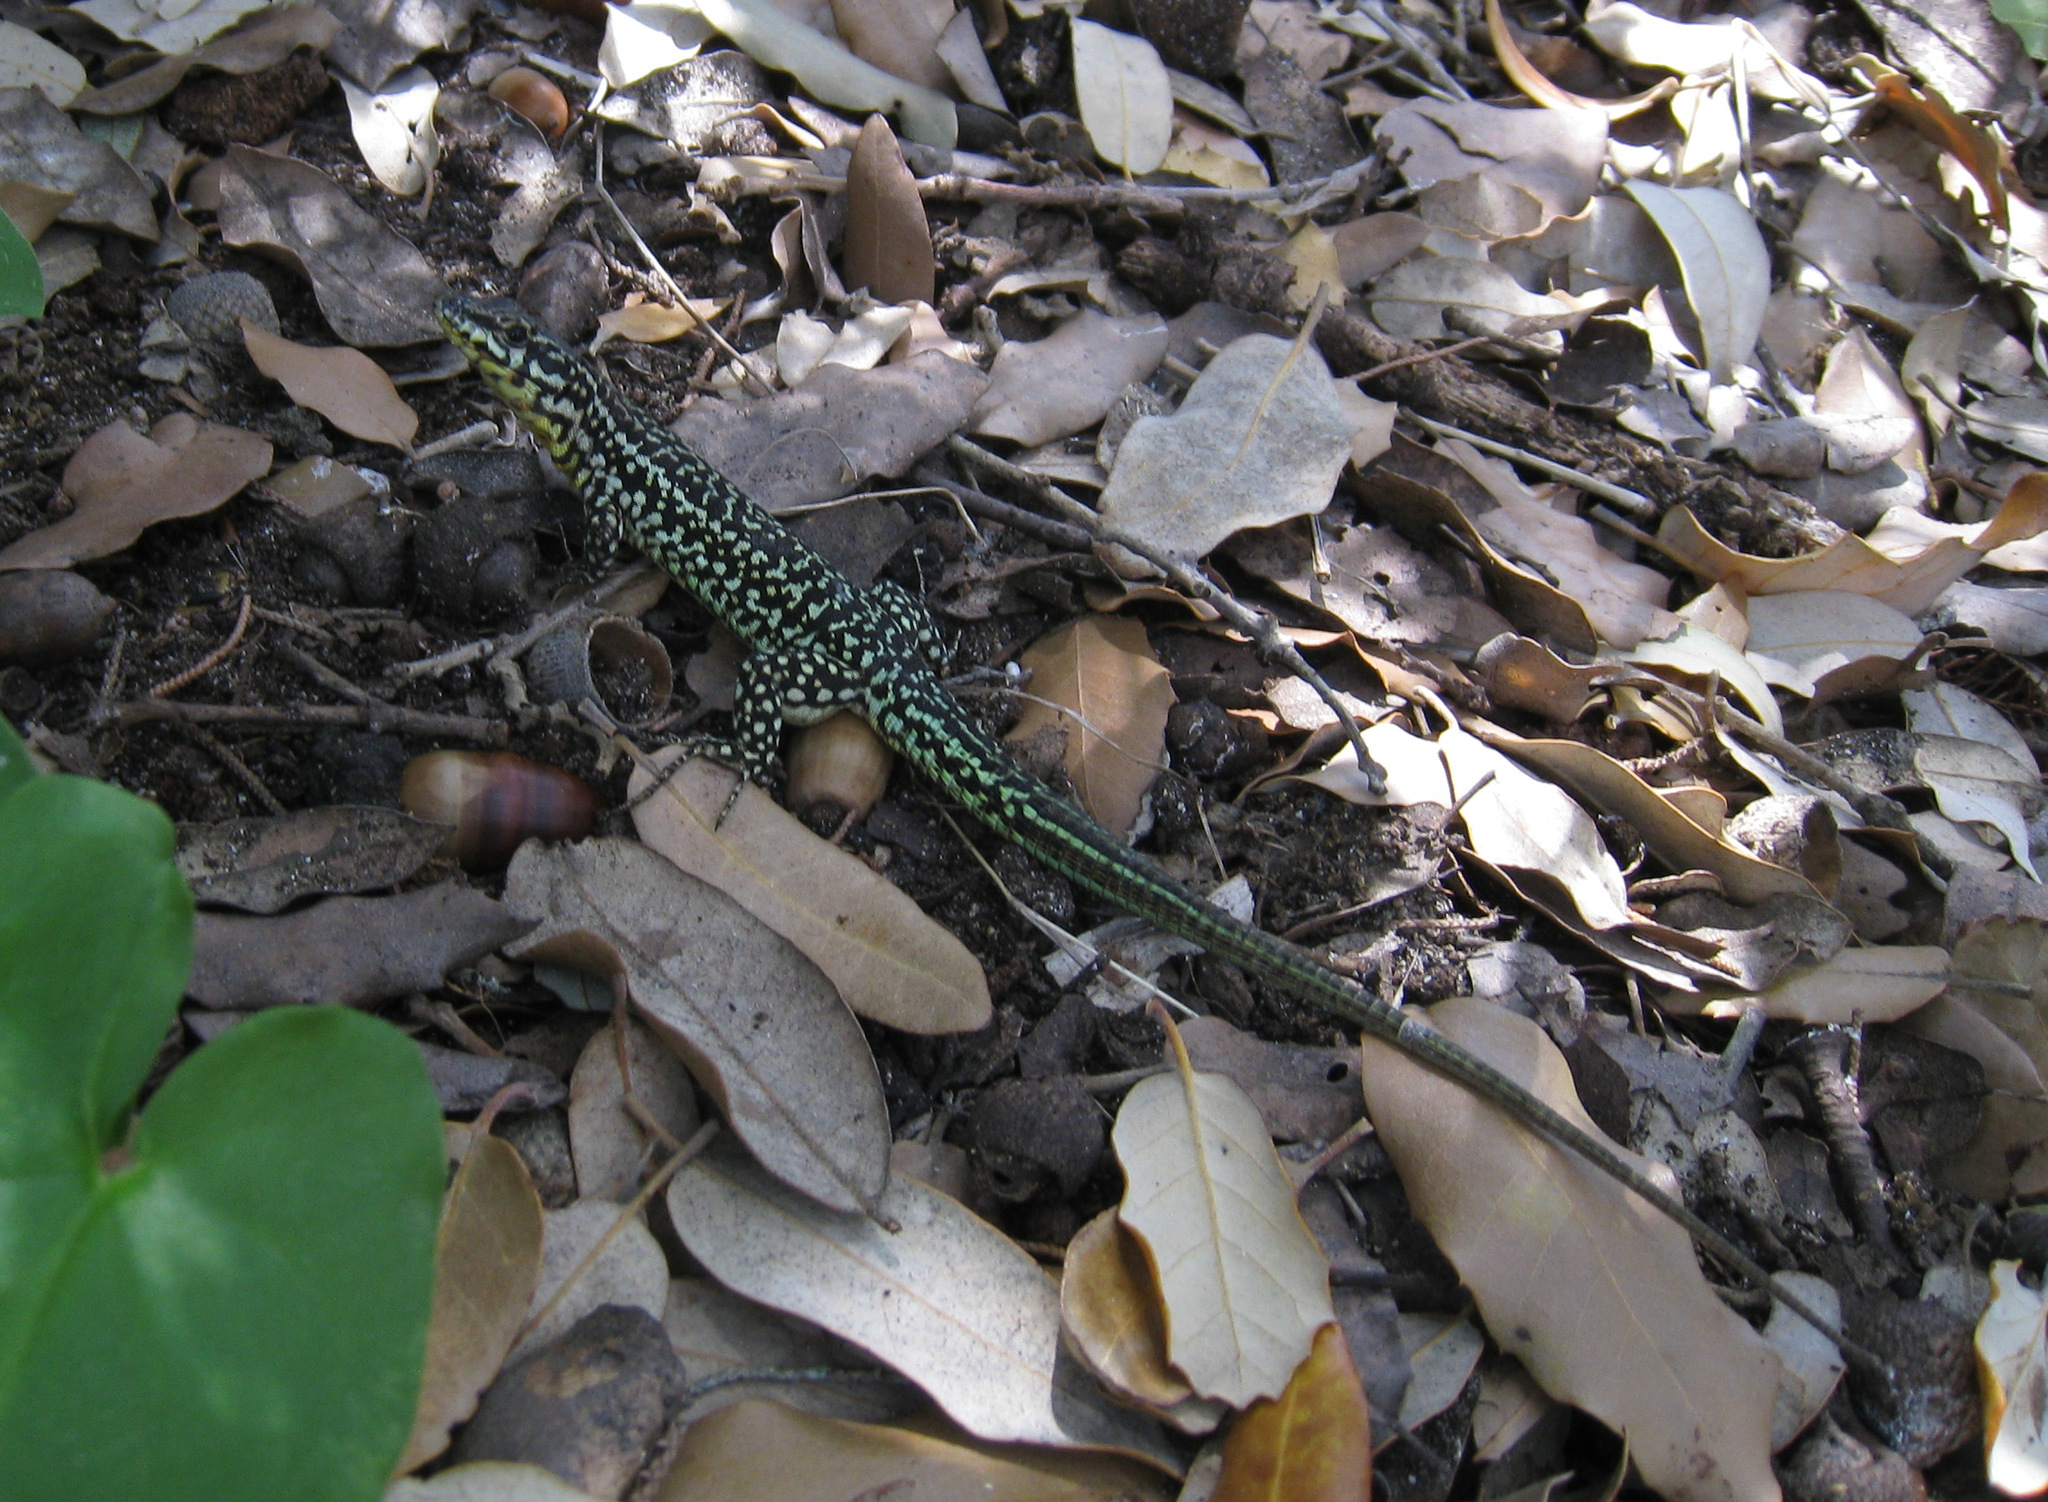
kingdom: Animalia
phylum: Chordata
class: Squamata
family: Lacertidae
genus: Podarcis
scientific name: Podarcis tiliguerta
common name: Tyrrhenian wall lizard
